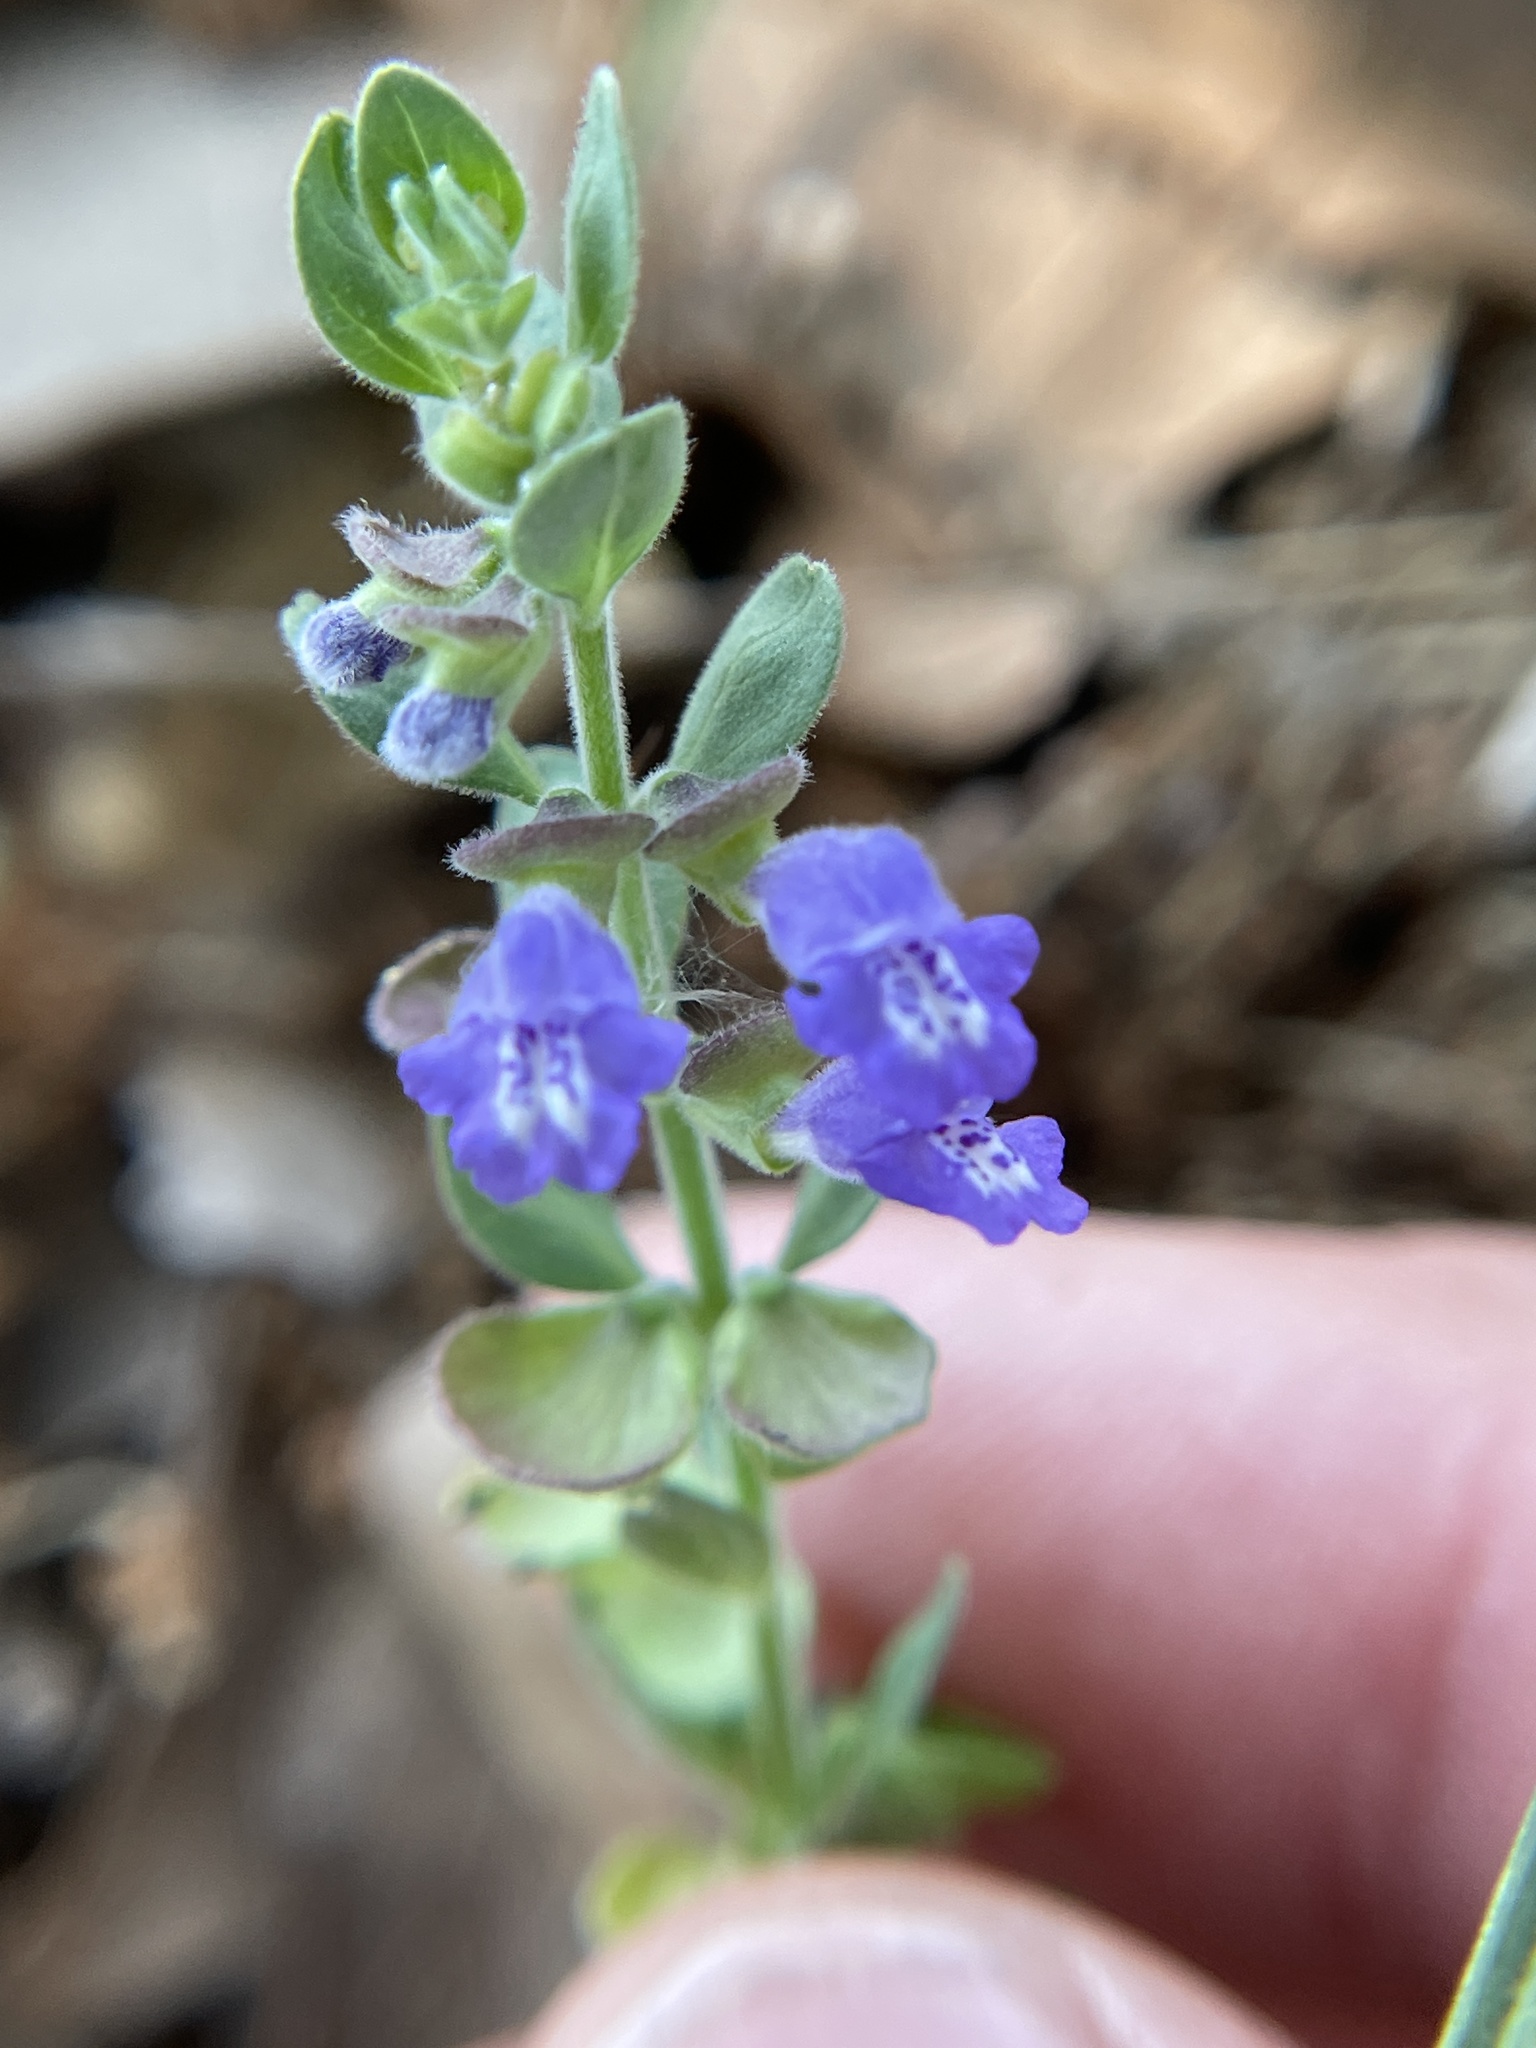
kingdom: Plantae
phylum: Tracheophyta
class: Magnoliopsida
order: Lamiales
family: Lamiaceae
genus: Scutellaria
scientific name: Scutellaria drummondii
